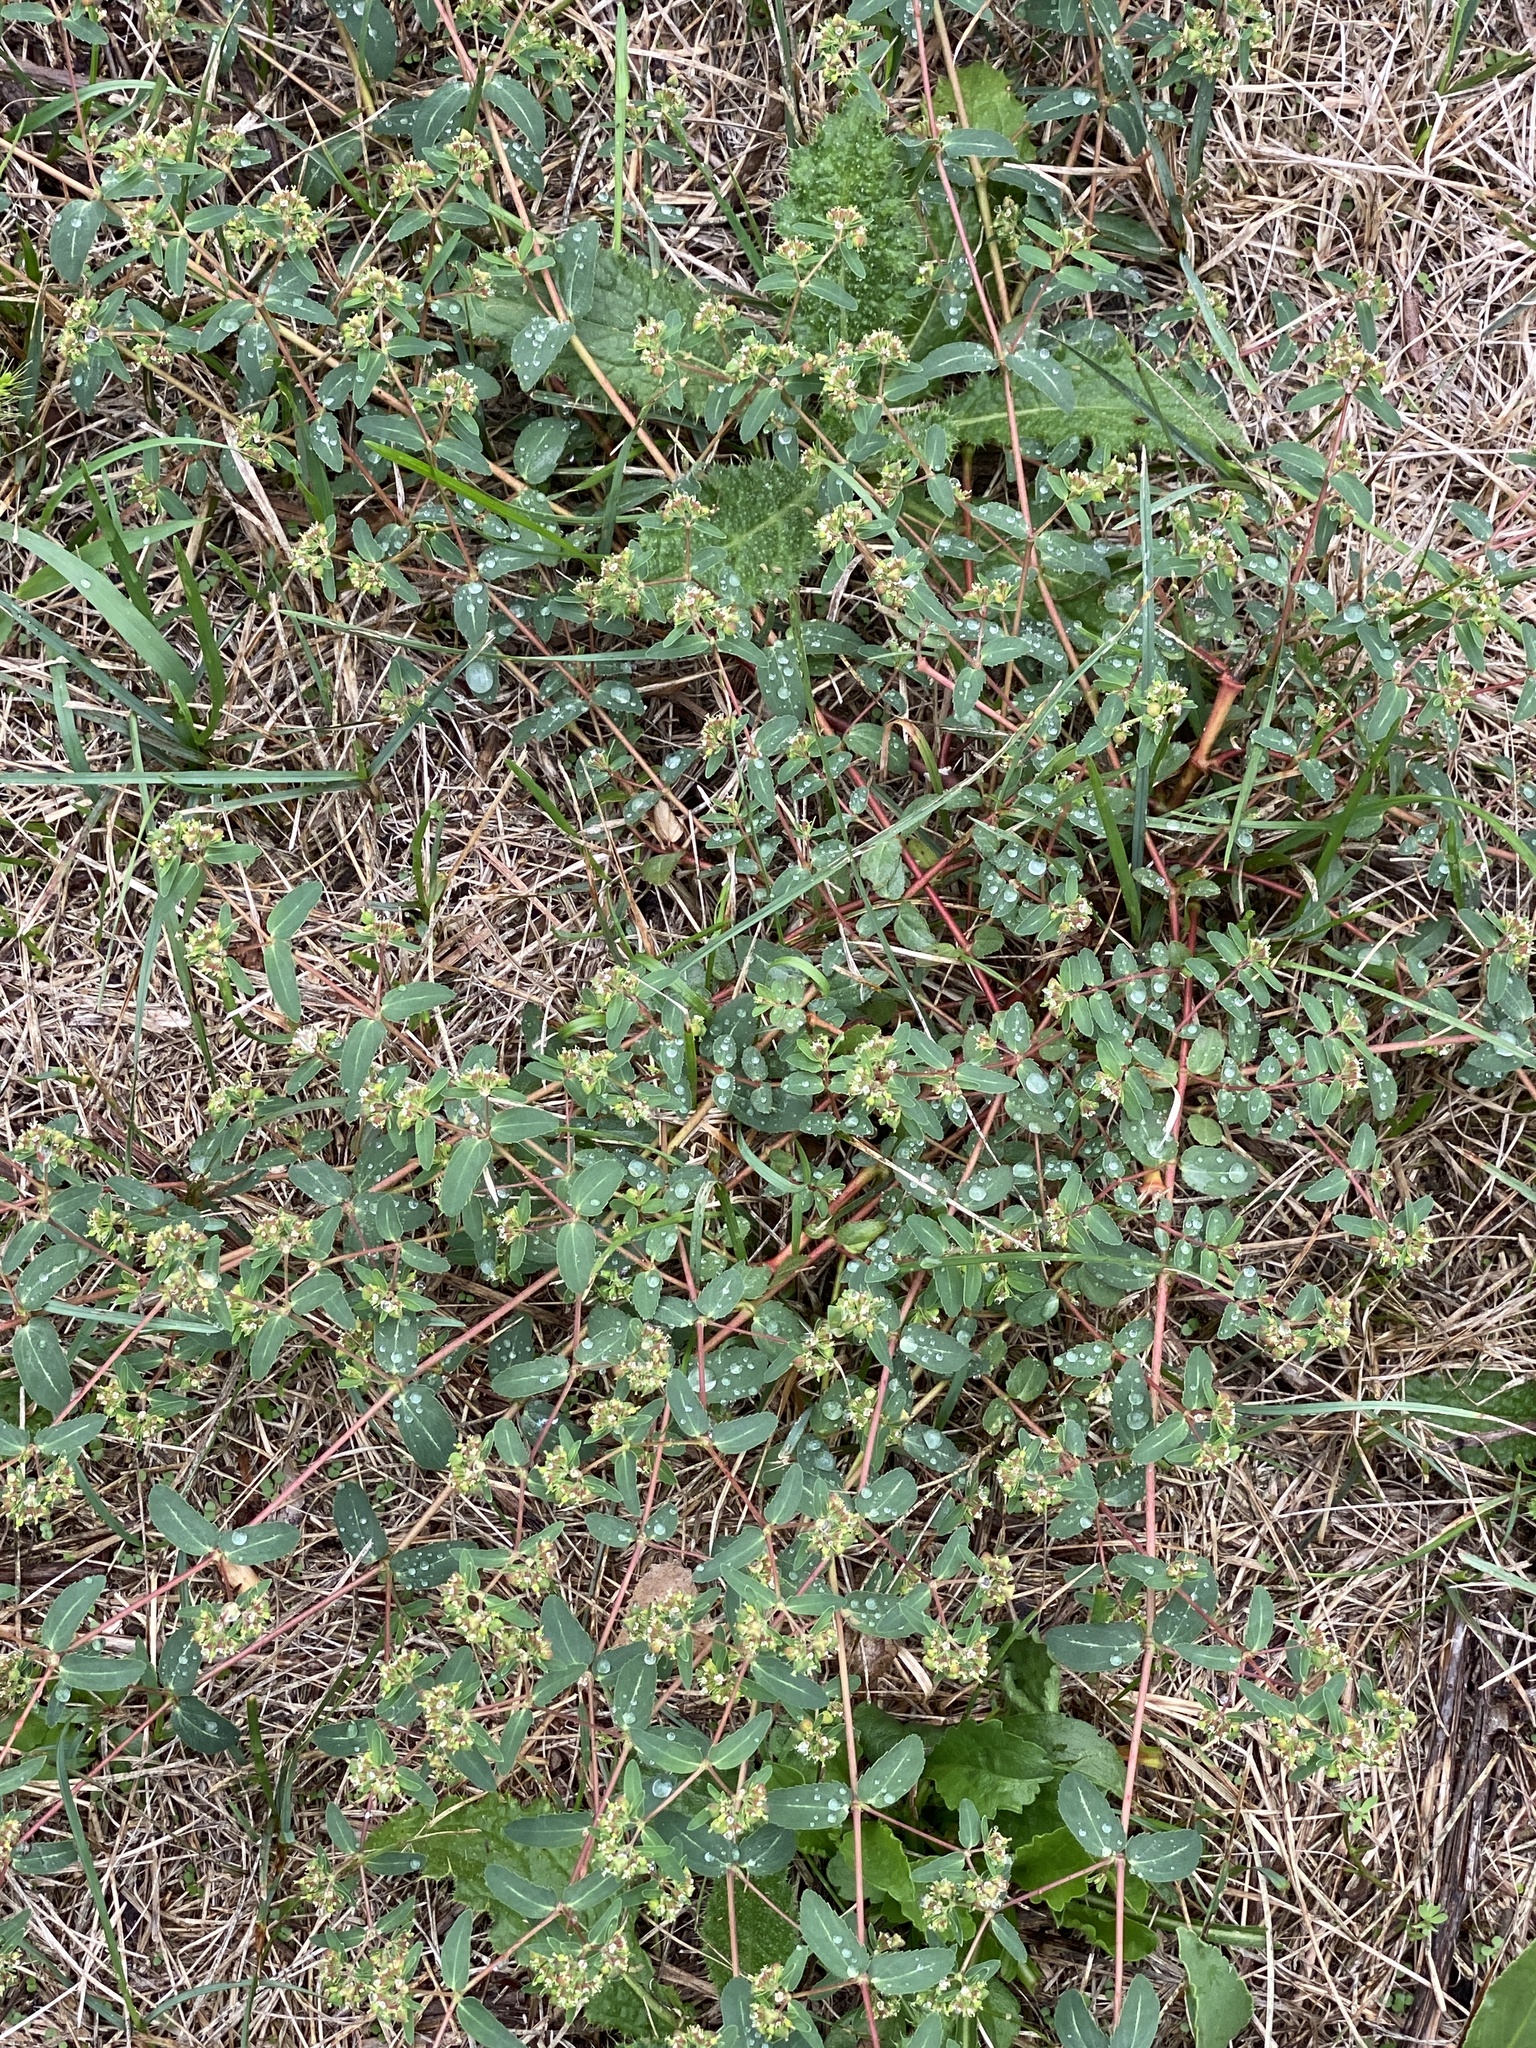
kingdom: Plantae
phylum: Tracheophyta
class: Magnoliopsida
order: Malpighiales
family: Euphorbiaceae
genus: Euphorbia
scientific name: Euphorbia nutans
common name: Eyebane
